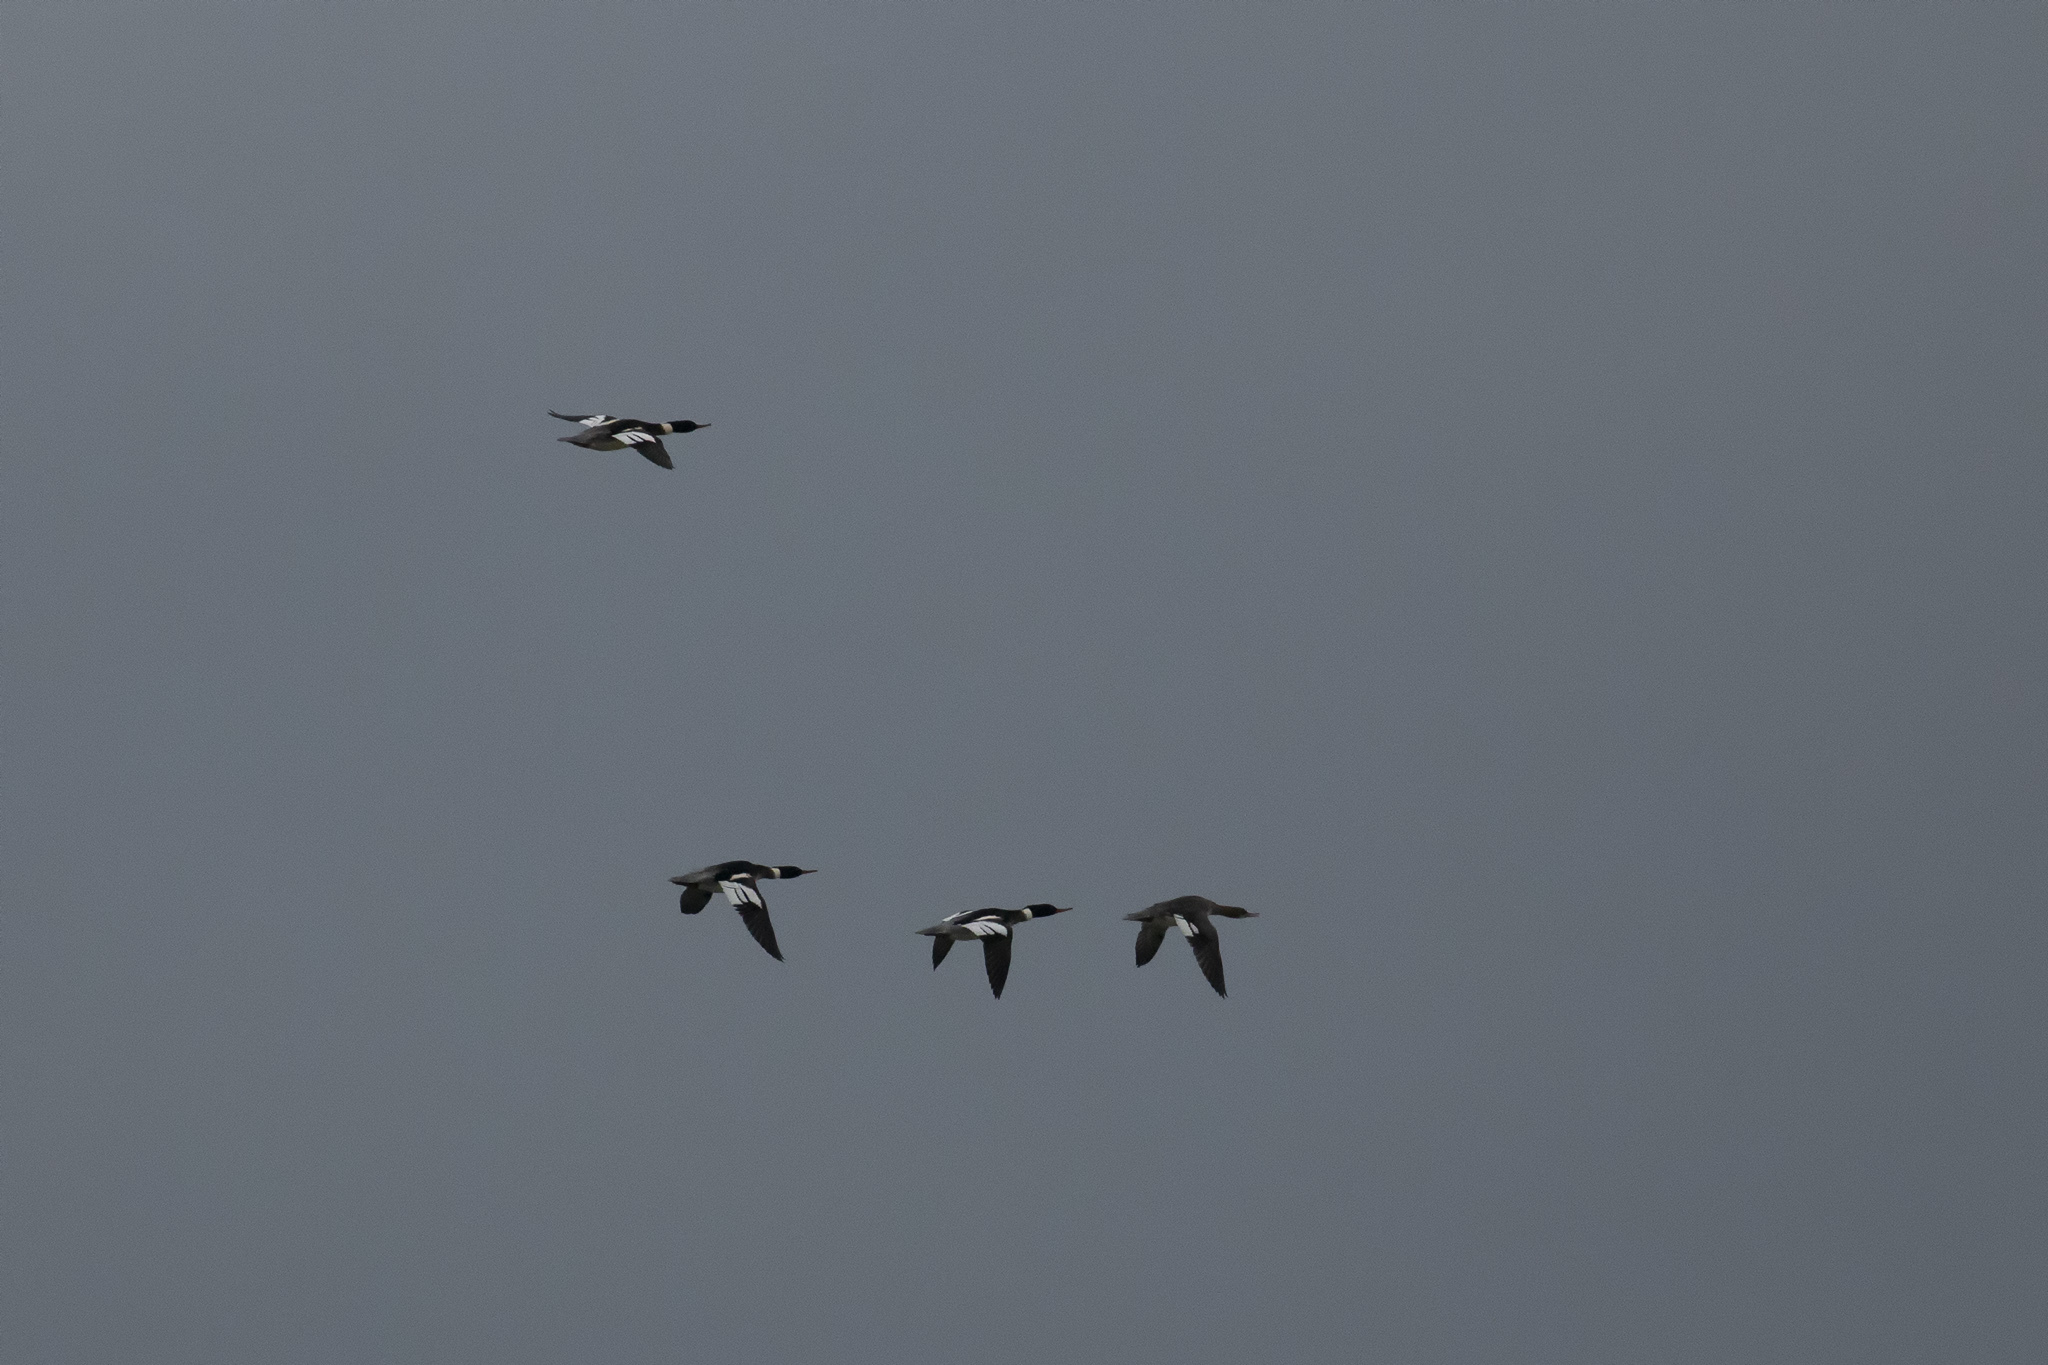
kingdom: Animalia
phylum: Chordata
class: Aves
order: Anseriformes
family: Anatidae
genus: Mergus
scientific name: Mergus serrator
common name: Red-breasted merganser
